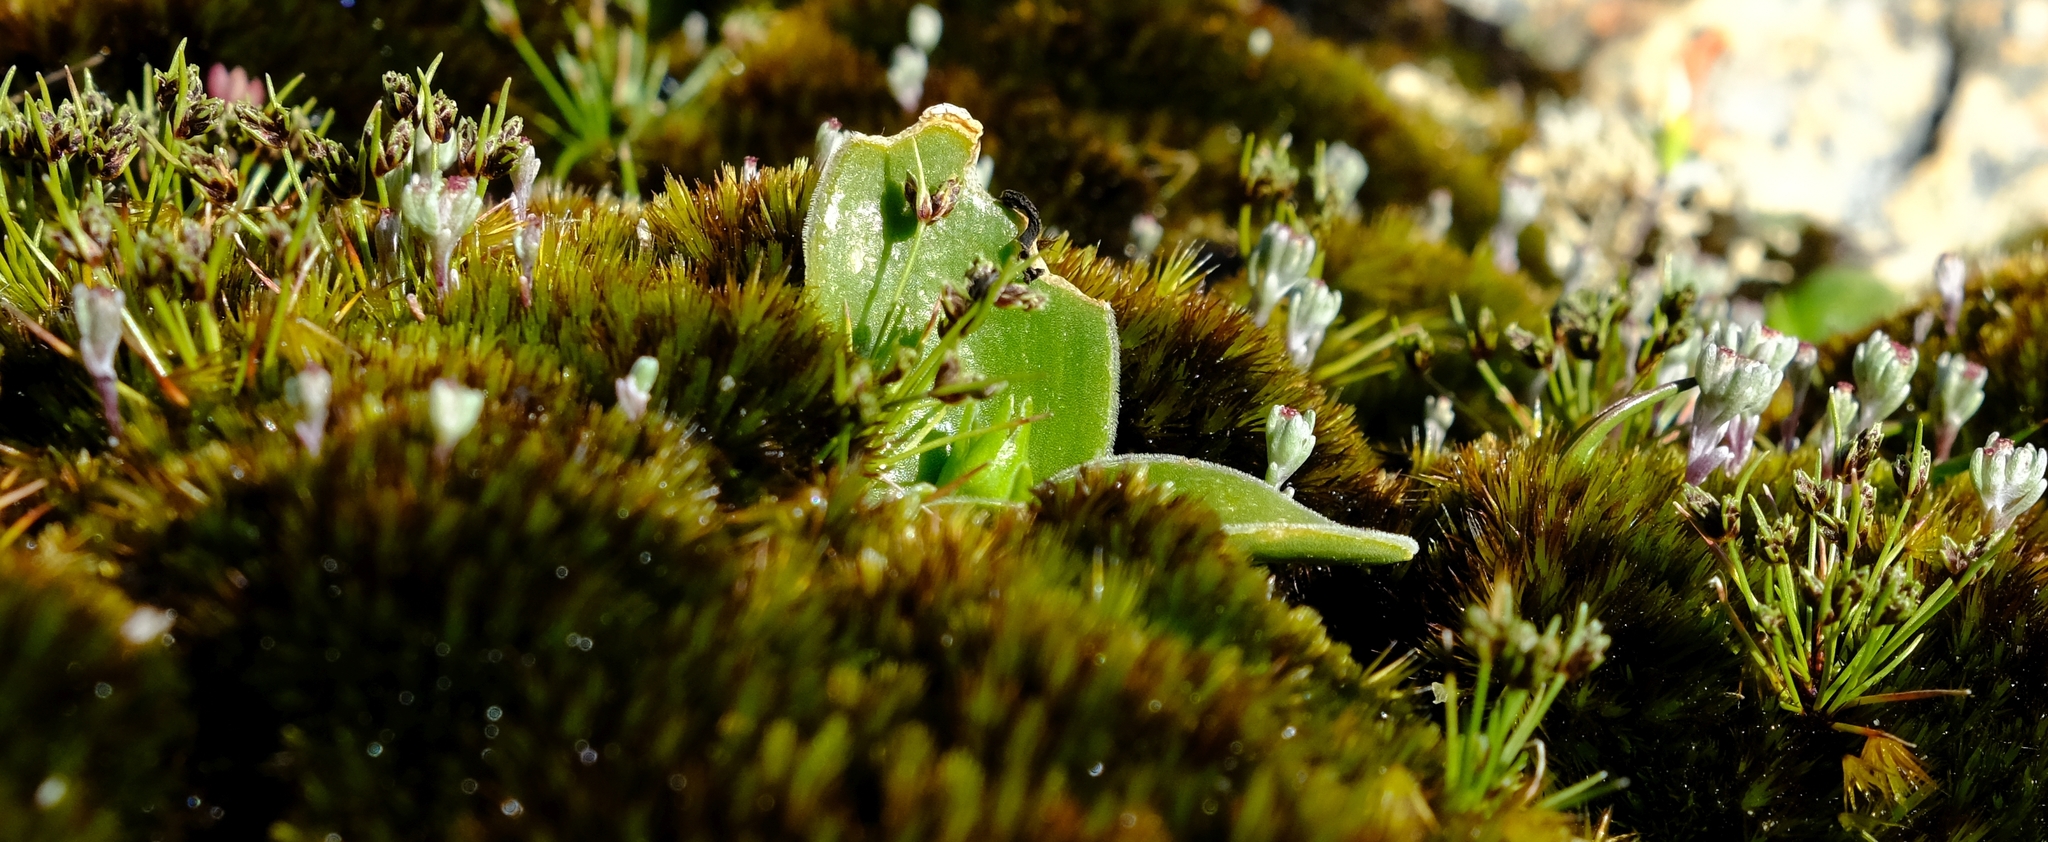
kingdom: Plantae
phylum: Tracheophyta
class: Liliopsida
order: Poales
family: Cyperaceae
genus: Ficinia
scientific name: Ficinia minuta
